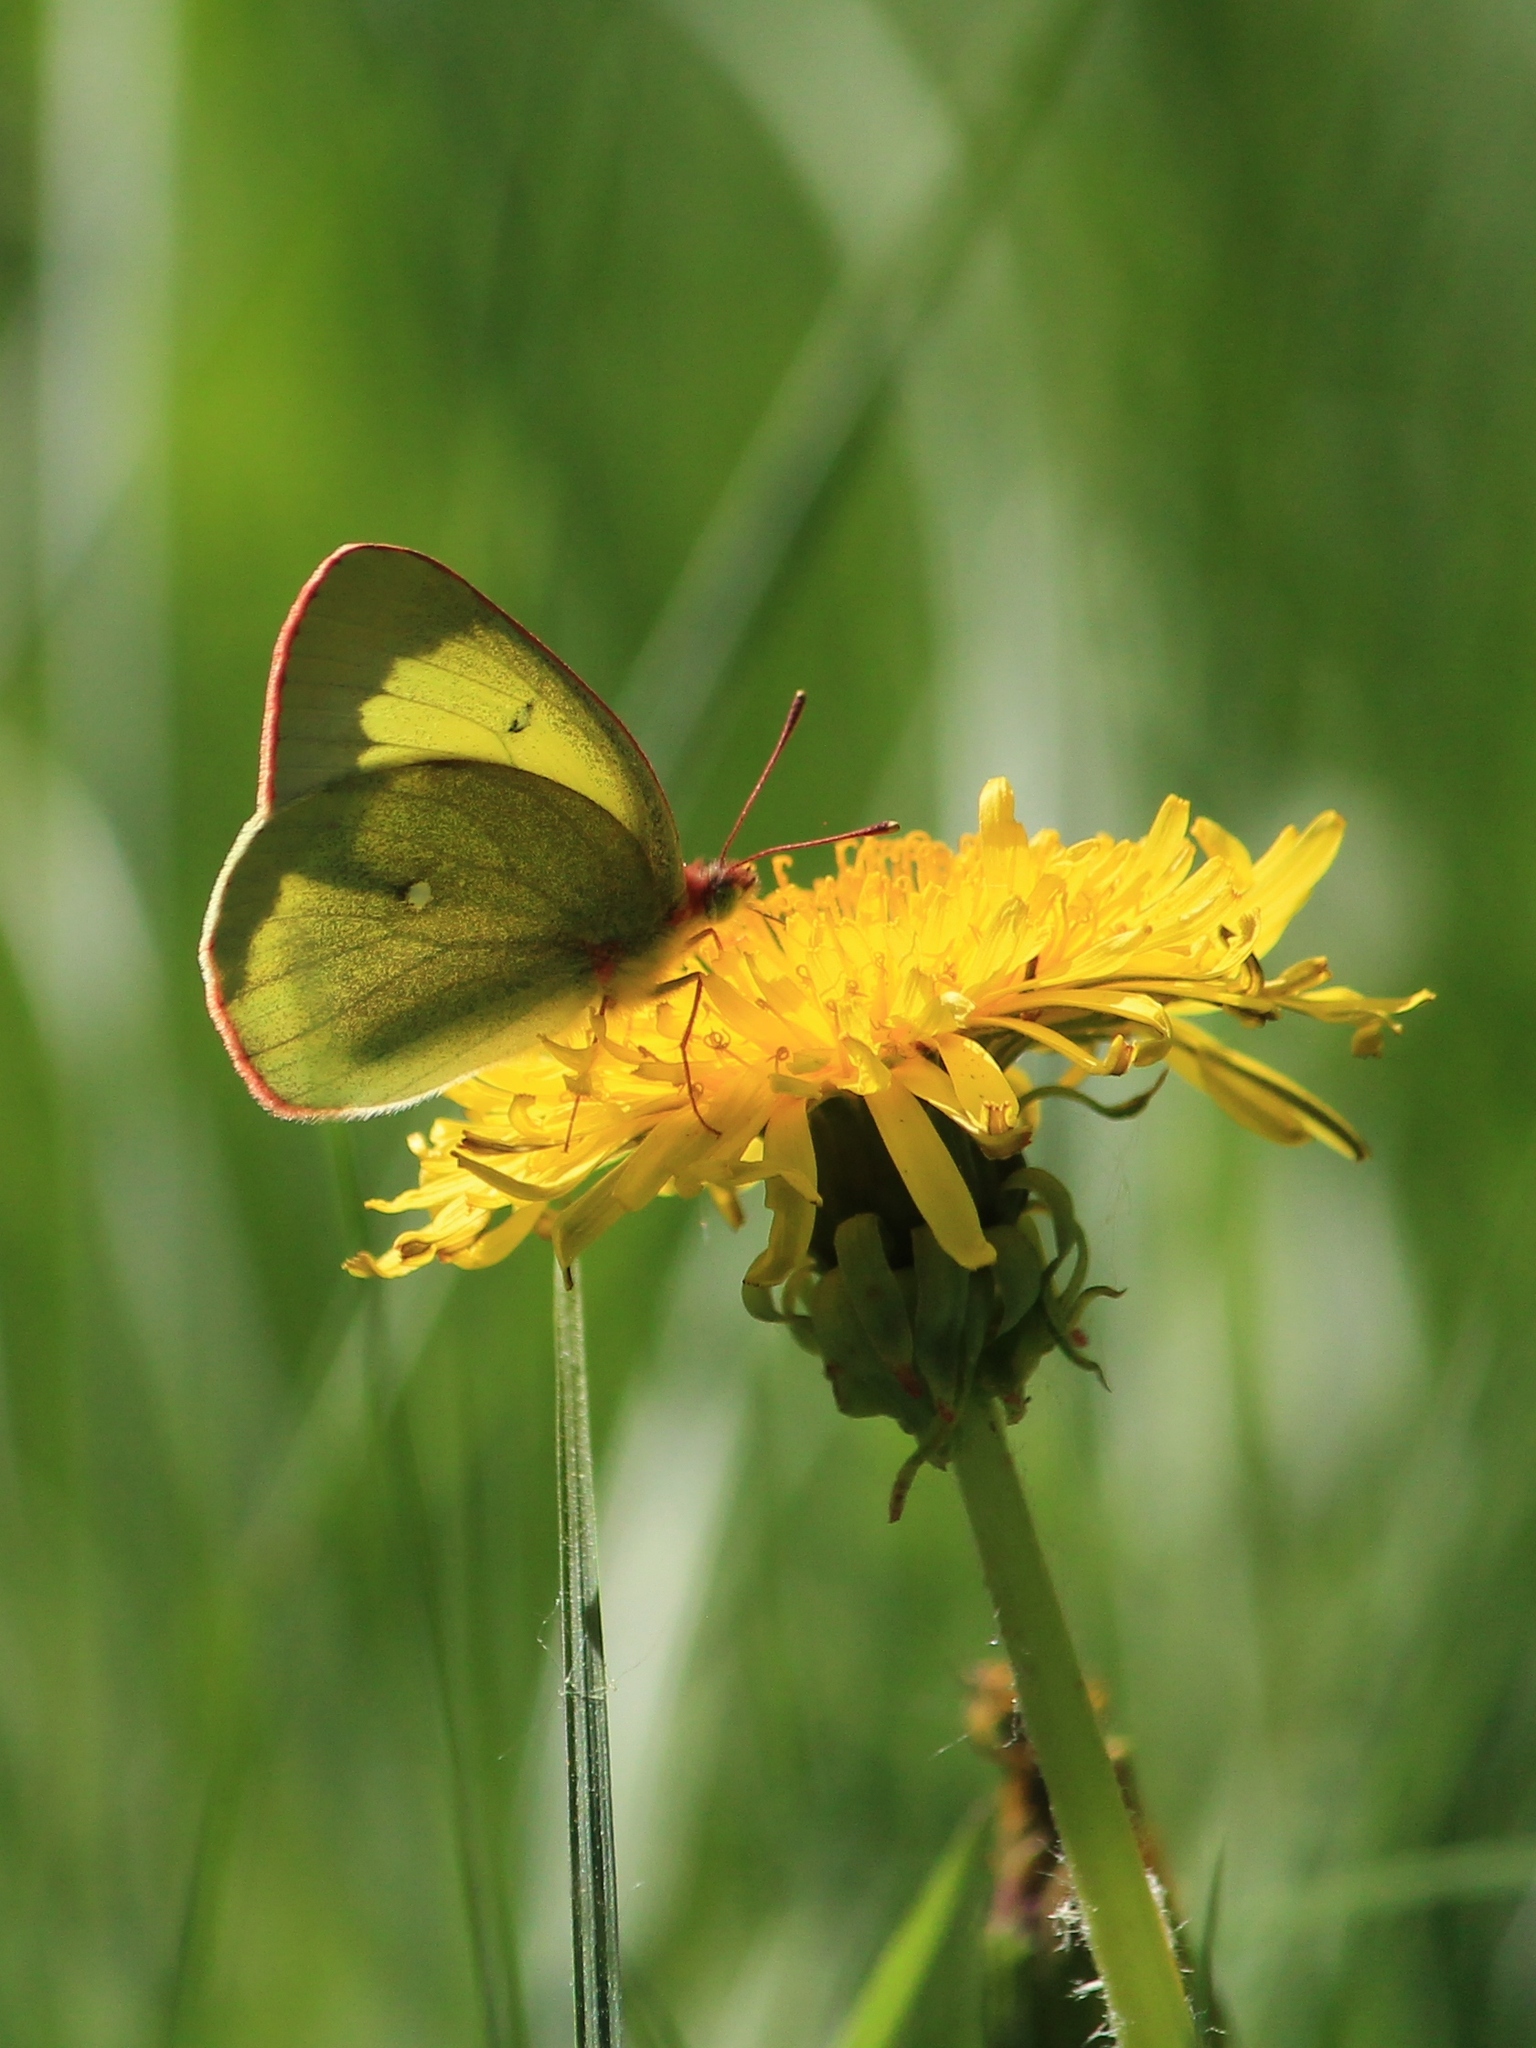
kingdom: Animalia
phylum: Arthropoda
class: Insecta
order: Lepidoptera
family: Pieridae
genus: Colias
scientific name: Colias palaeno
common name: Moorland clouded yellow
